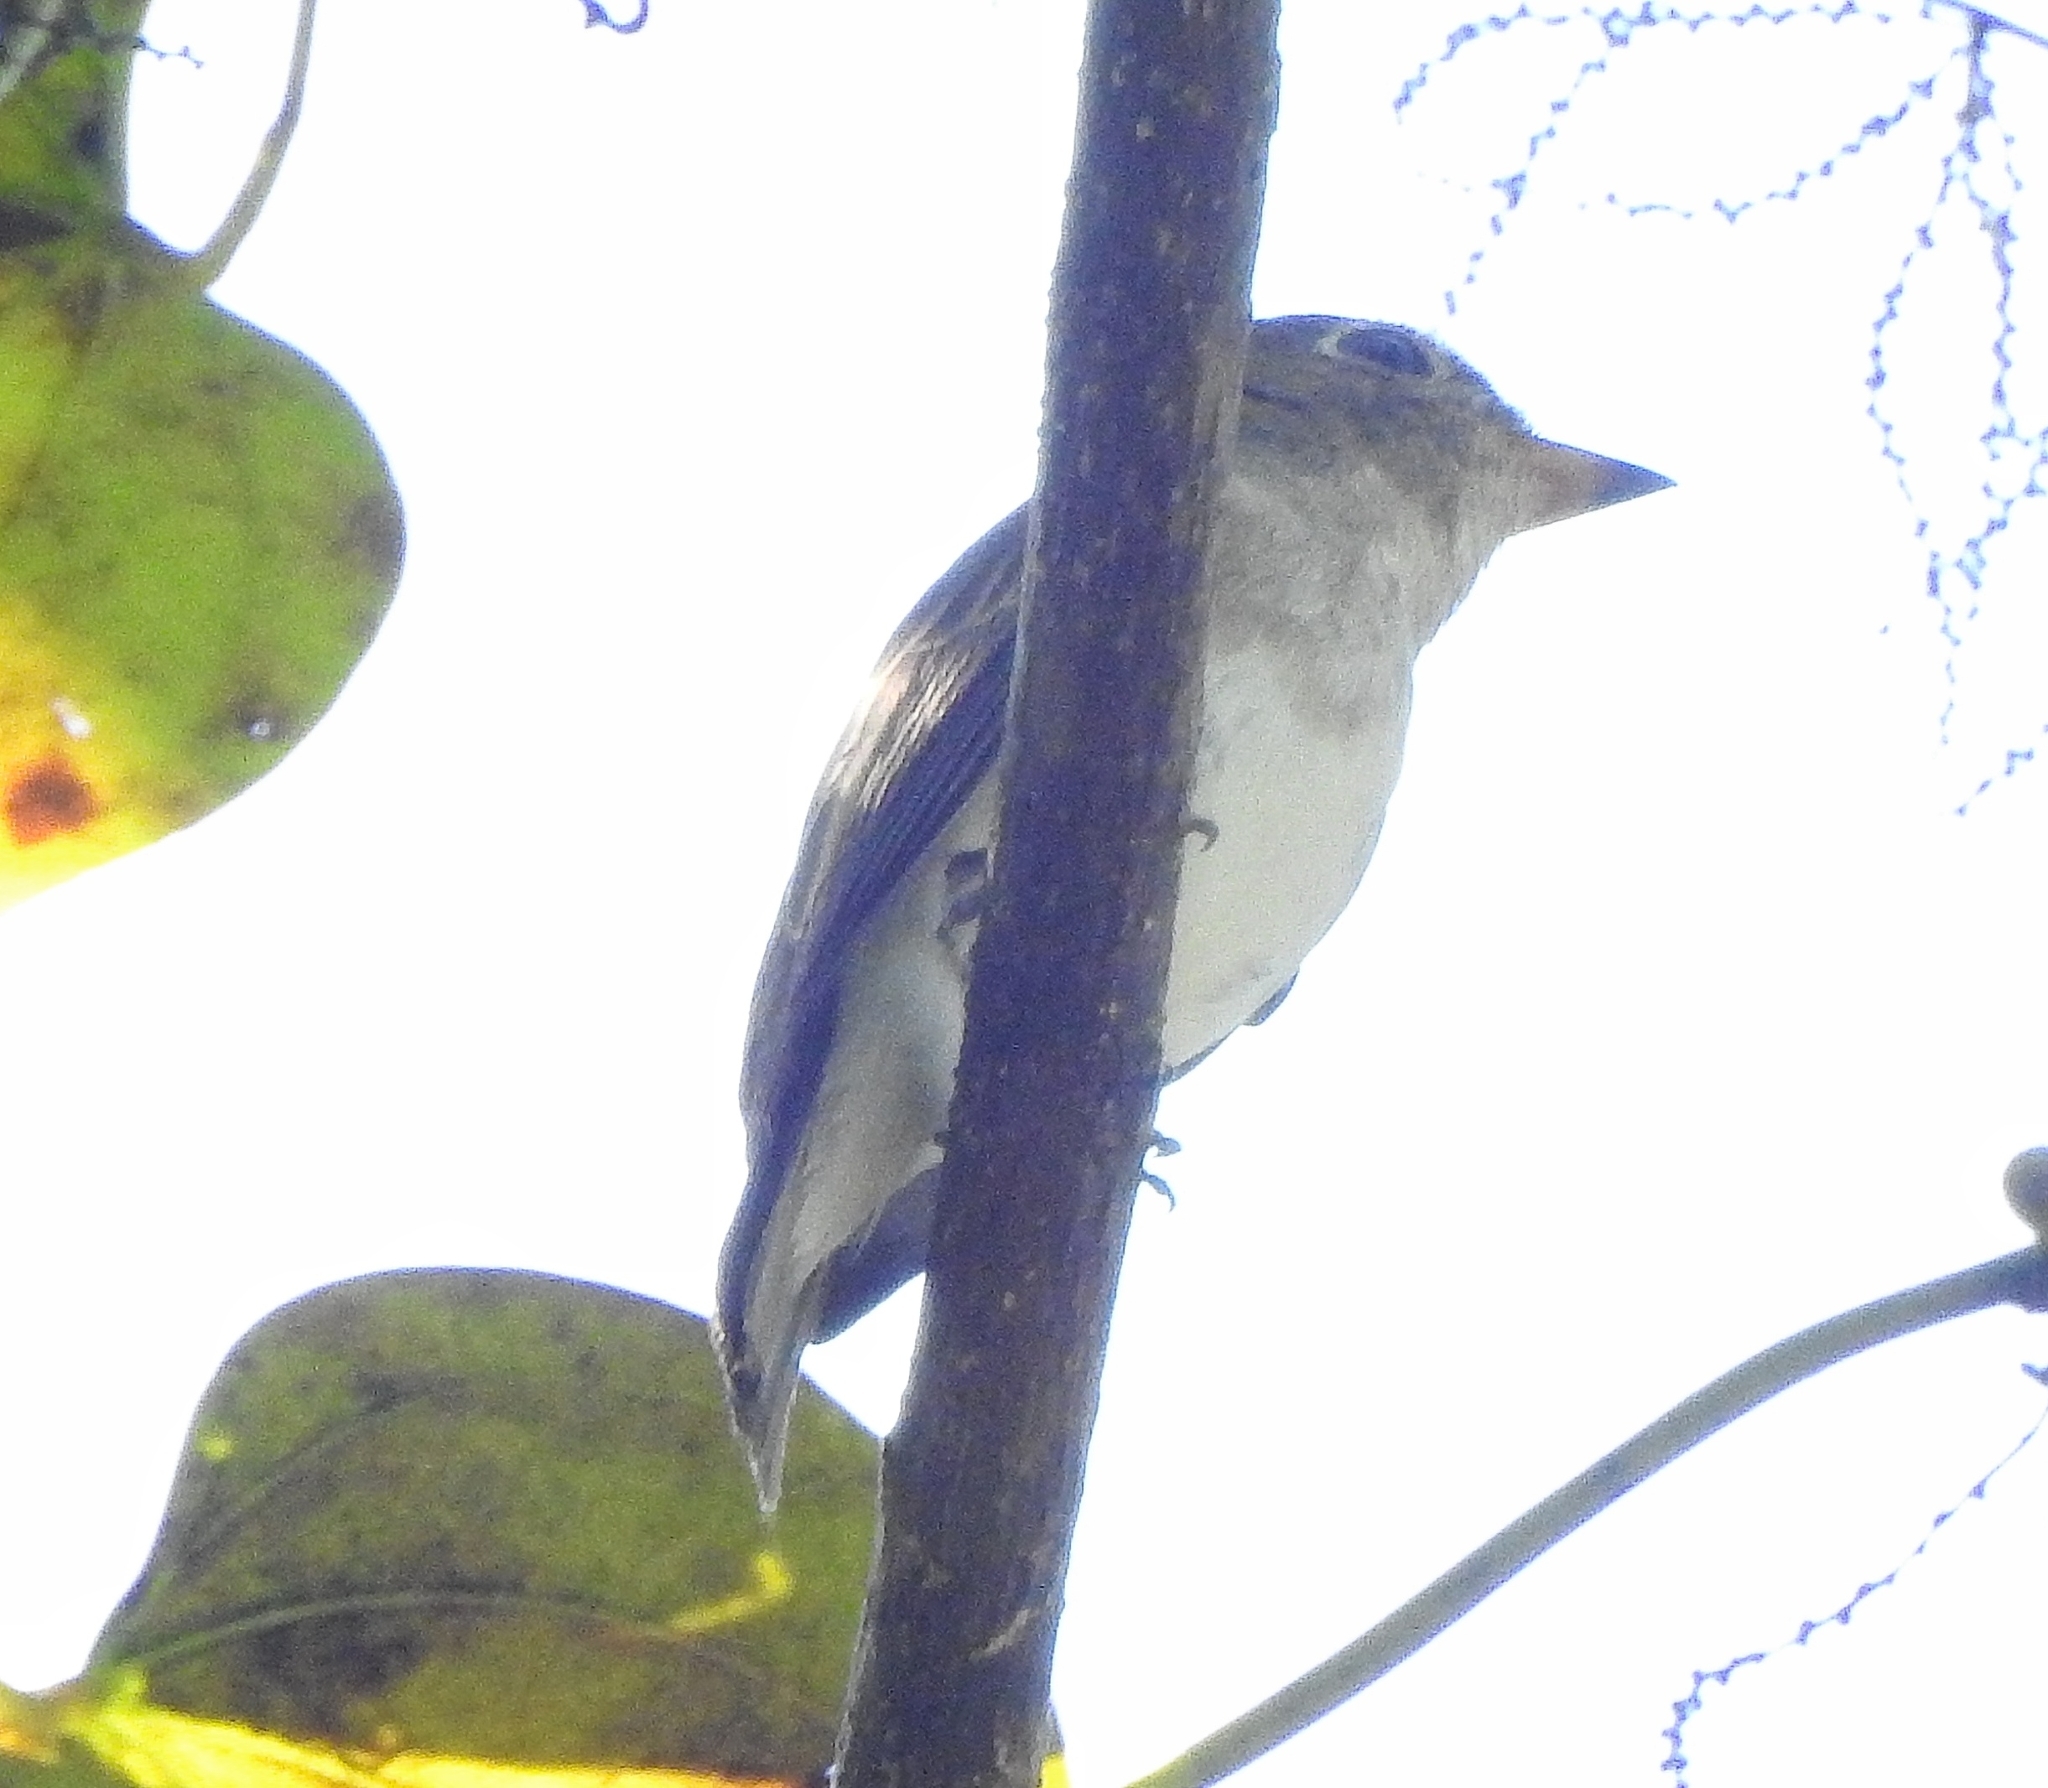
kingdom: Animalia
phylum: Chordata
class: Aves
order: Passeriformes
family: Muscicapidae
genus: Muscicapa
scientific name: Muscicapa latirostris
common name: Asian brown flycatcher
